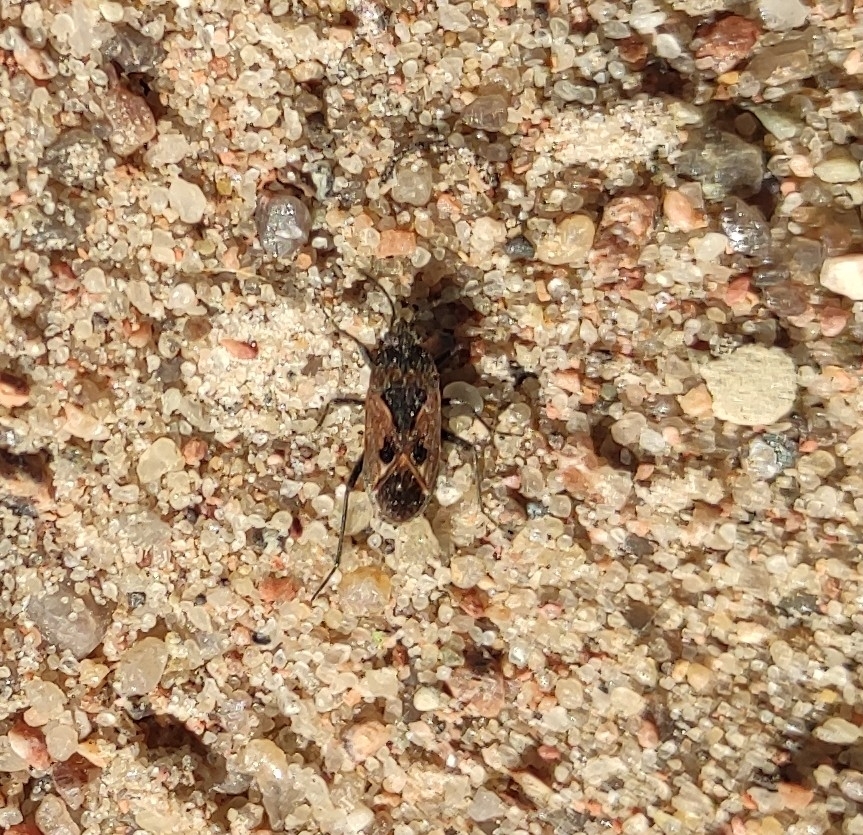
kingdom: Animalia
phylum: Arthropoda
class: Insecta
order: Hemiptera
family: Rhyparochromidae
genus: Rhyparochromus
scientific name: Rhyparochromus pini
